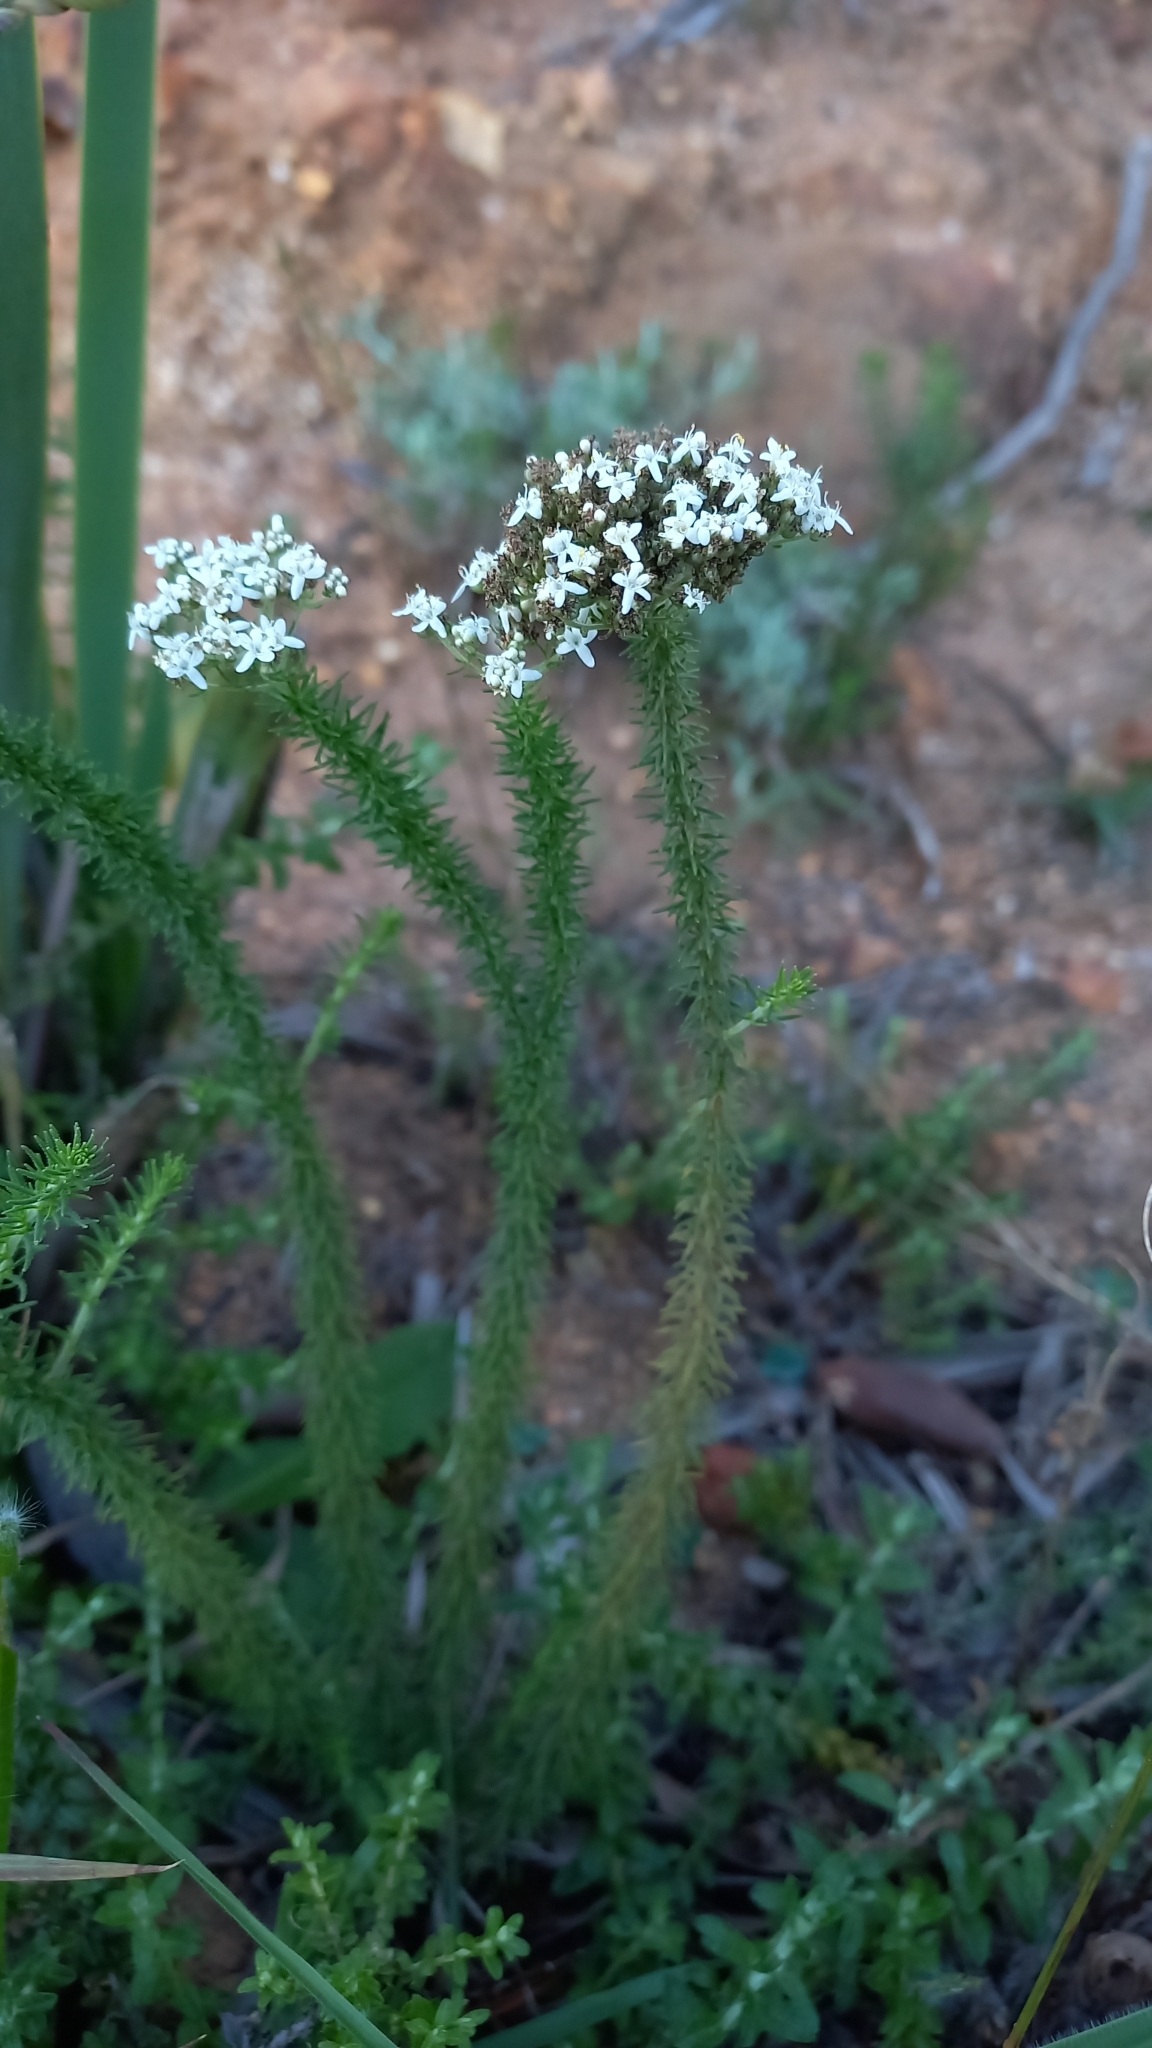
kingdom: Plantae
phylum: Tracheophyta
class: Magnoliopsida
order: Lamiales
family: Scrophulariaceae
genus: Selago
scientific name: Selago corymbosa
